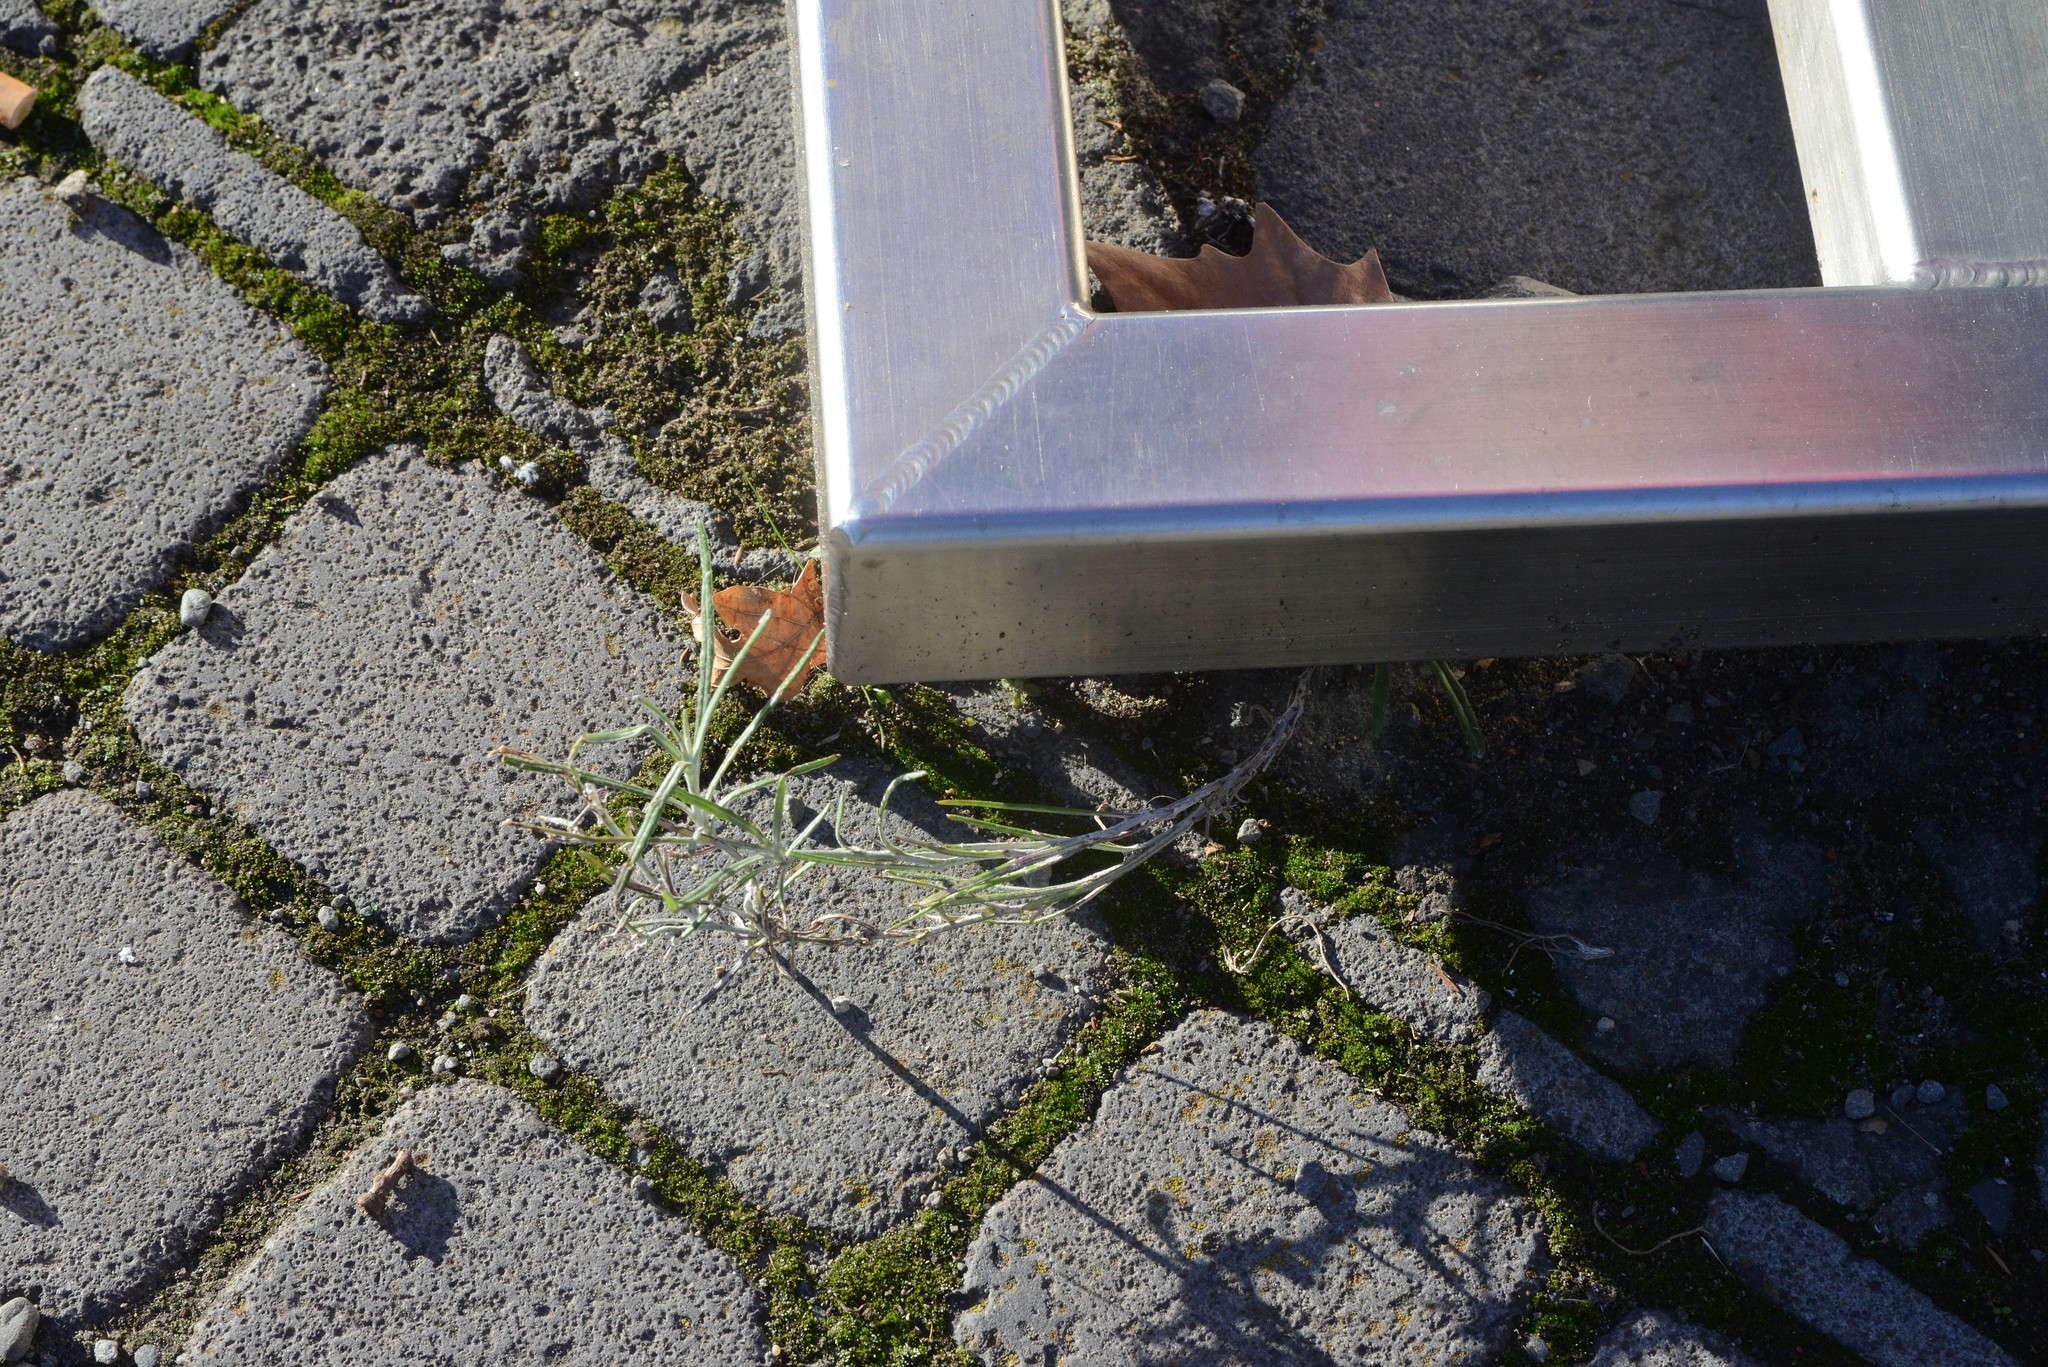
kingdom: Plantae
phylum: Tracheophyta
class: Magnoliopsida
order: Asterales
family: Asteraceae
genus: Senecio
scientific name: Senecio quadridentatus
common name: Cotton fireweed
